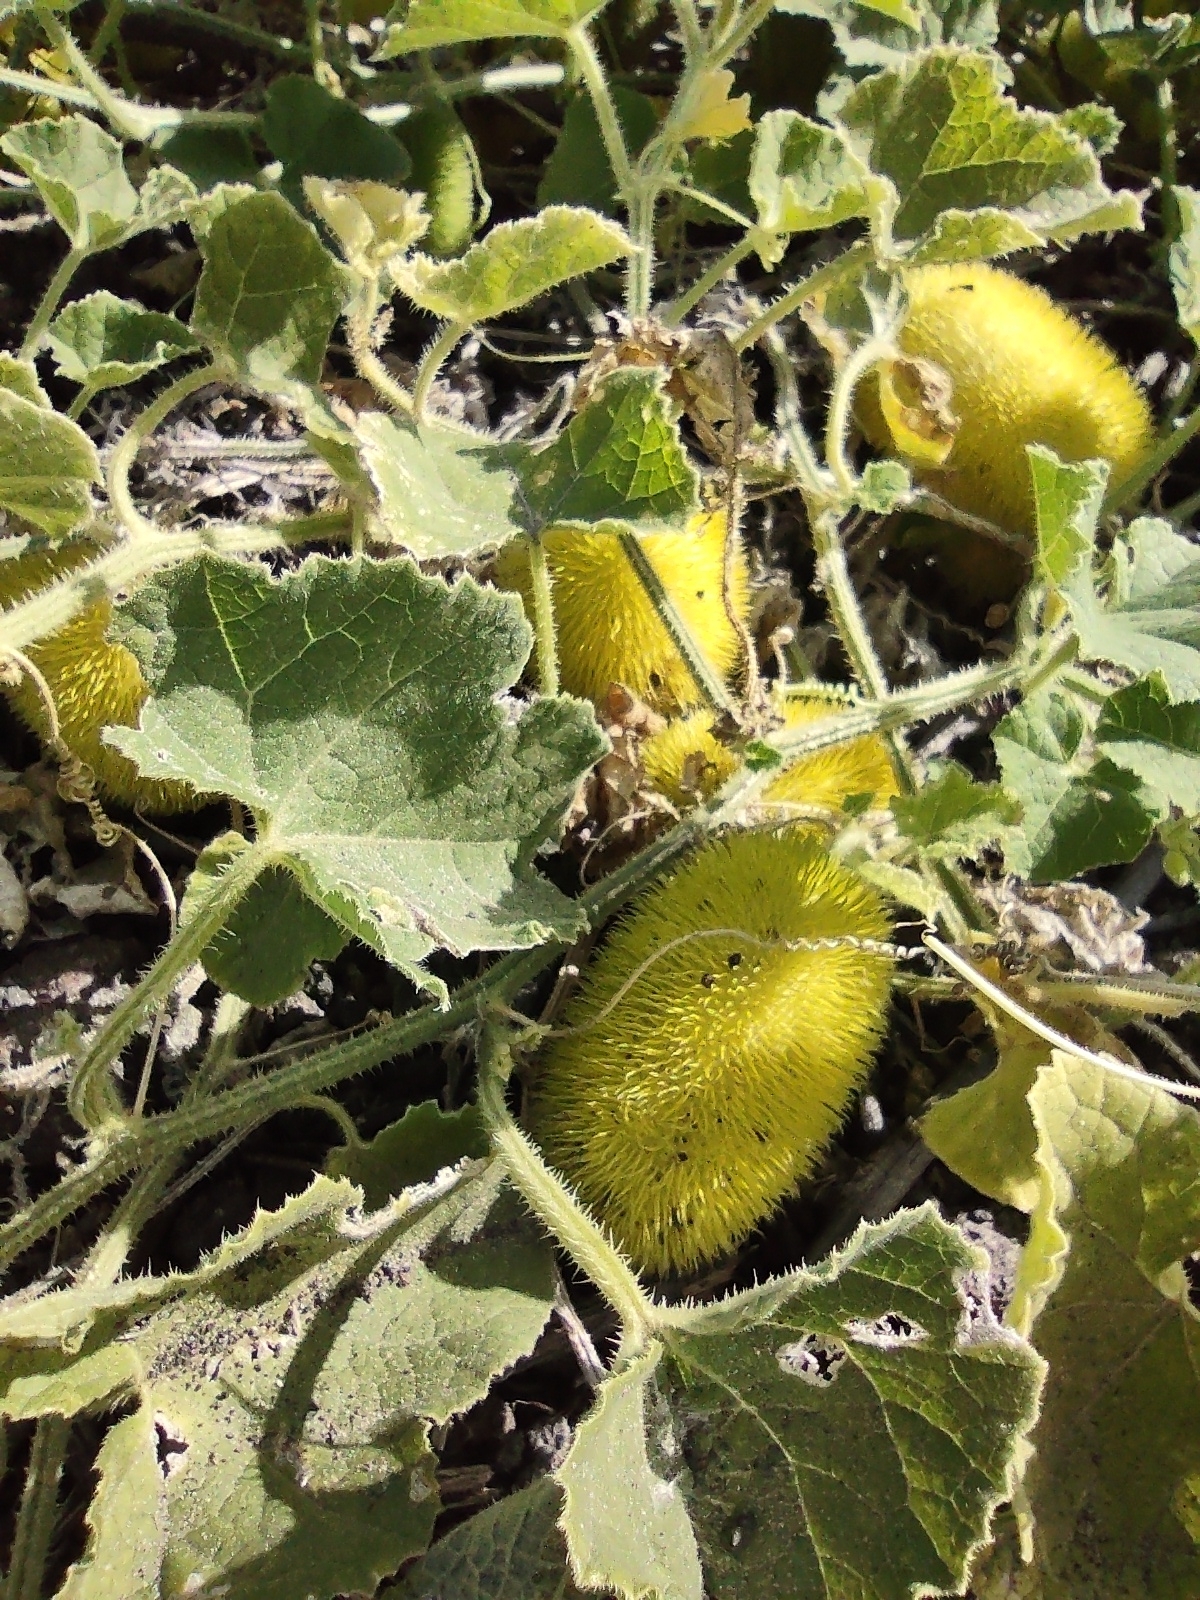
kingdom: Plantae
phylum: Tracheophyta
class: Magnoliopsida
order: Cucurbitales
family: Cucurbitaceae
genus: Cucumis
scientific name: Cucumis dipsaceus
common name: Hedgehog gourd
